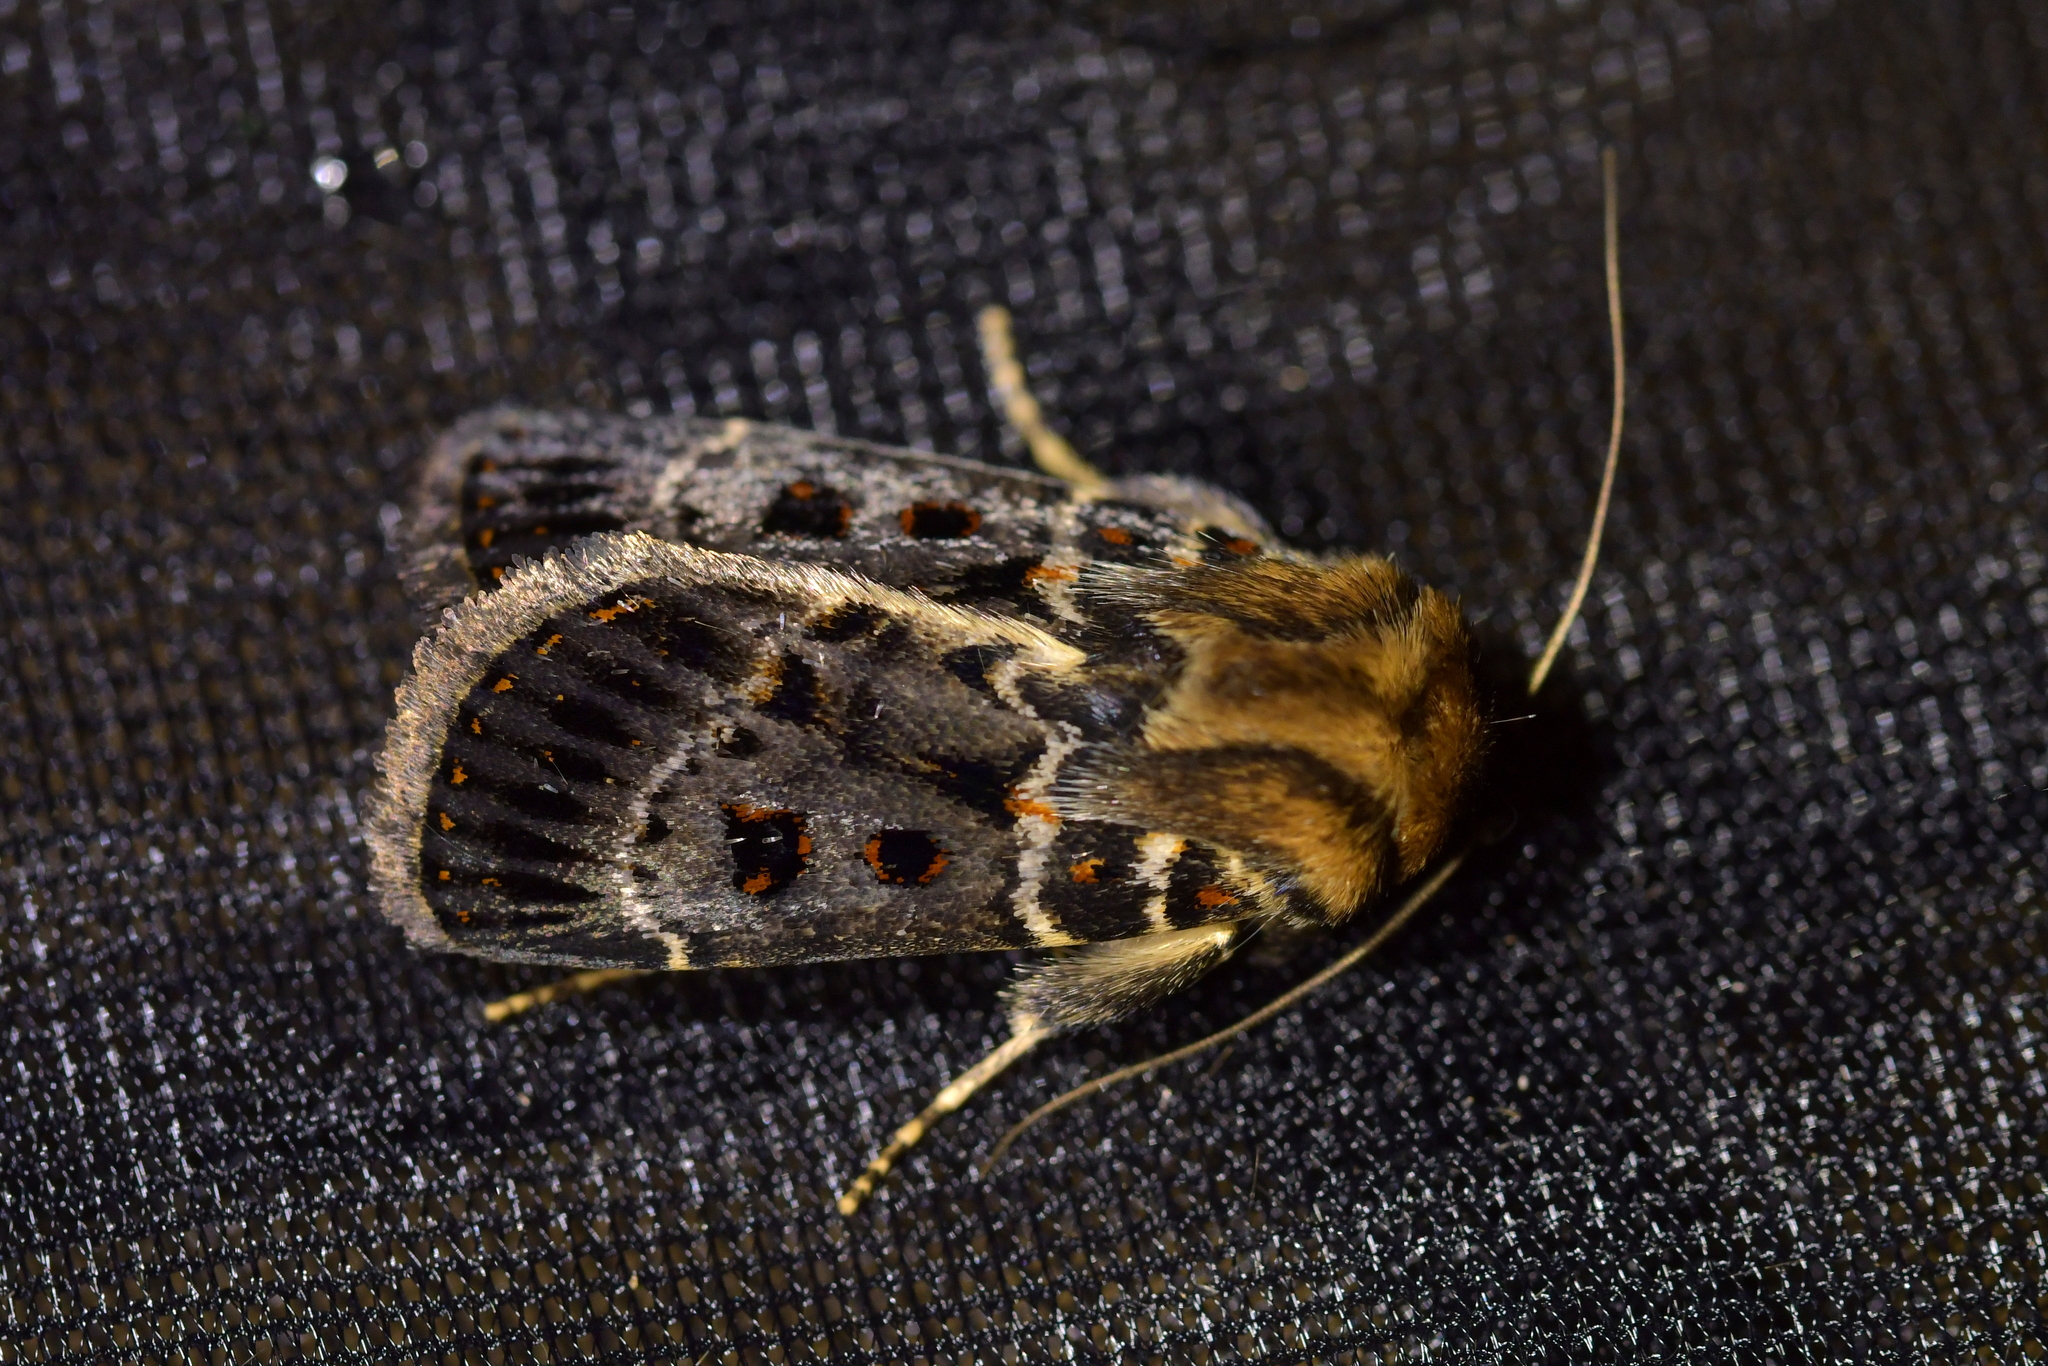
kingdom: Animalia
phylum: Arthropoda
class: Insecta
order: Lepidoptera
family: Noctuidae
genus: Proteuxoa
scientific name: Proteuxoa sanguinipuncta
